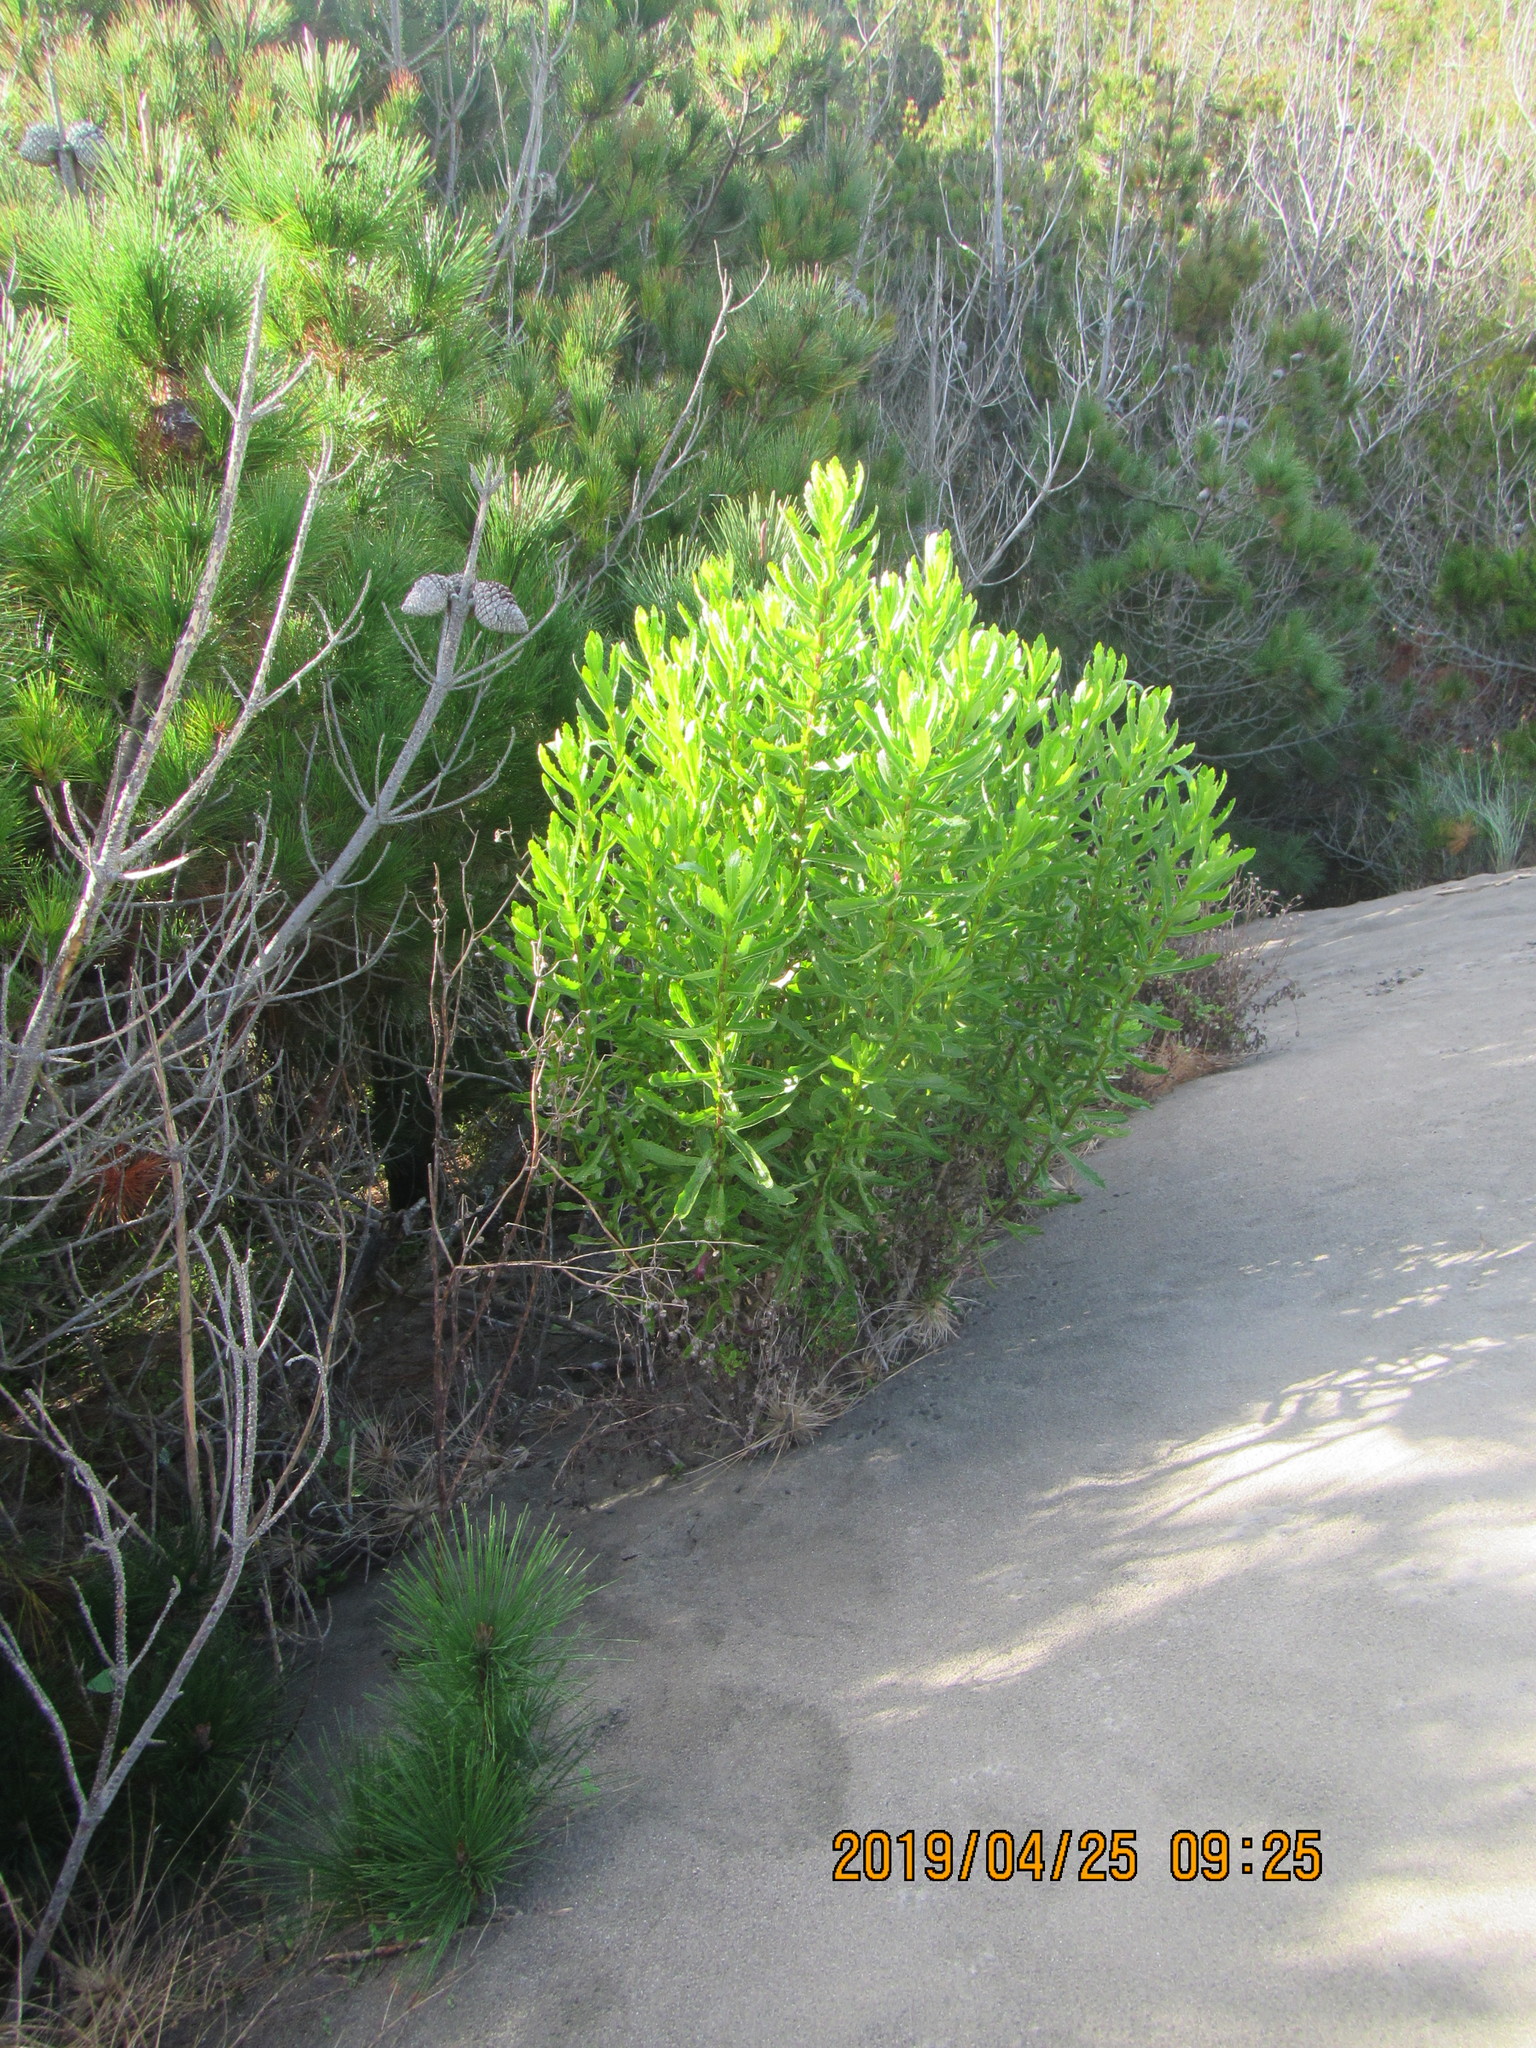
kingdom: Plantae
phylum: Tracheophyta
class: Magnoliopsida
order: Asterales
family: Asteraceae
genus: Senecio
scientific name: Senecio glastifolius
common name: Woad-leaved ragwort
